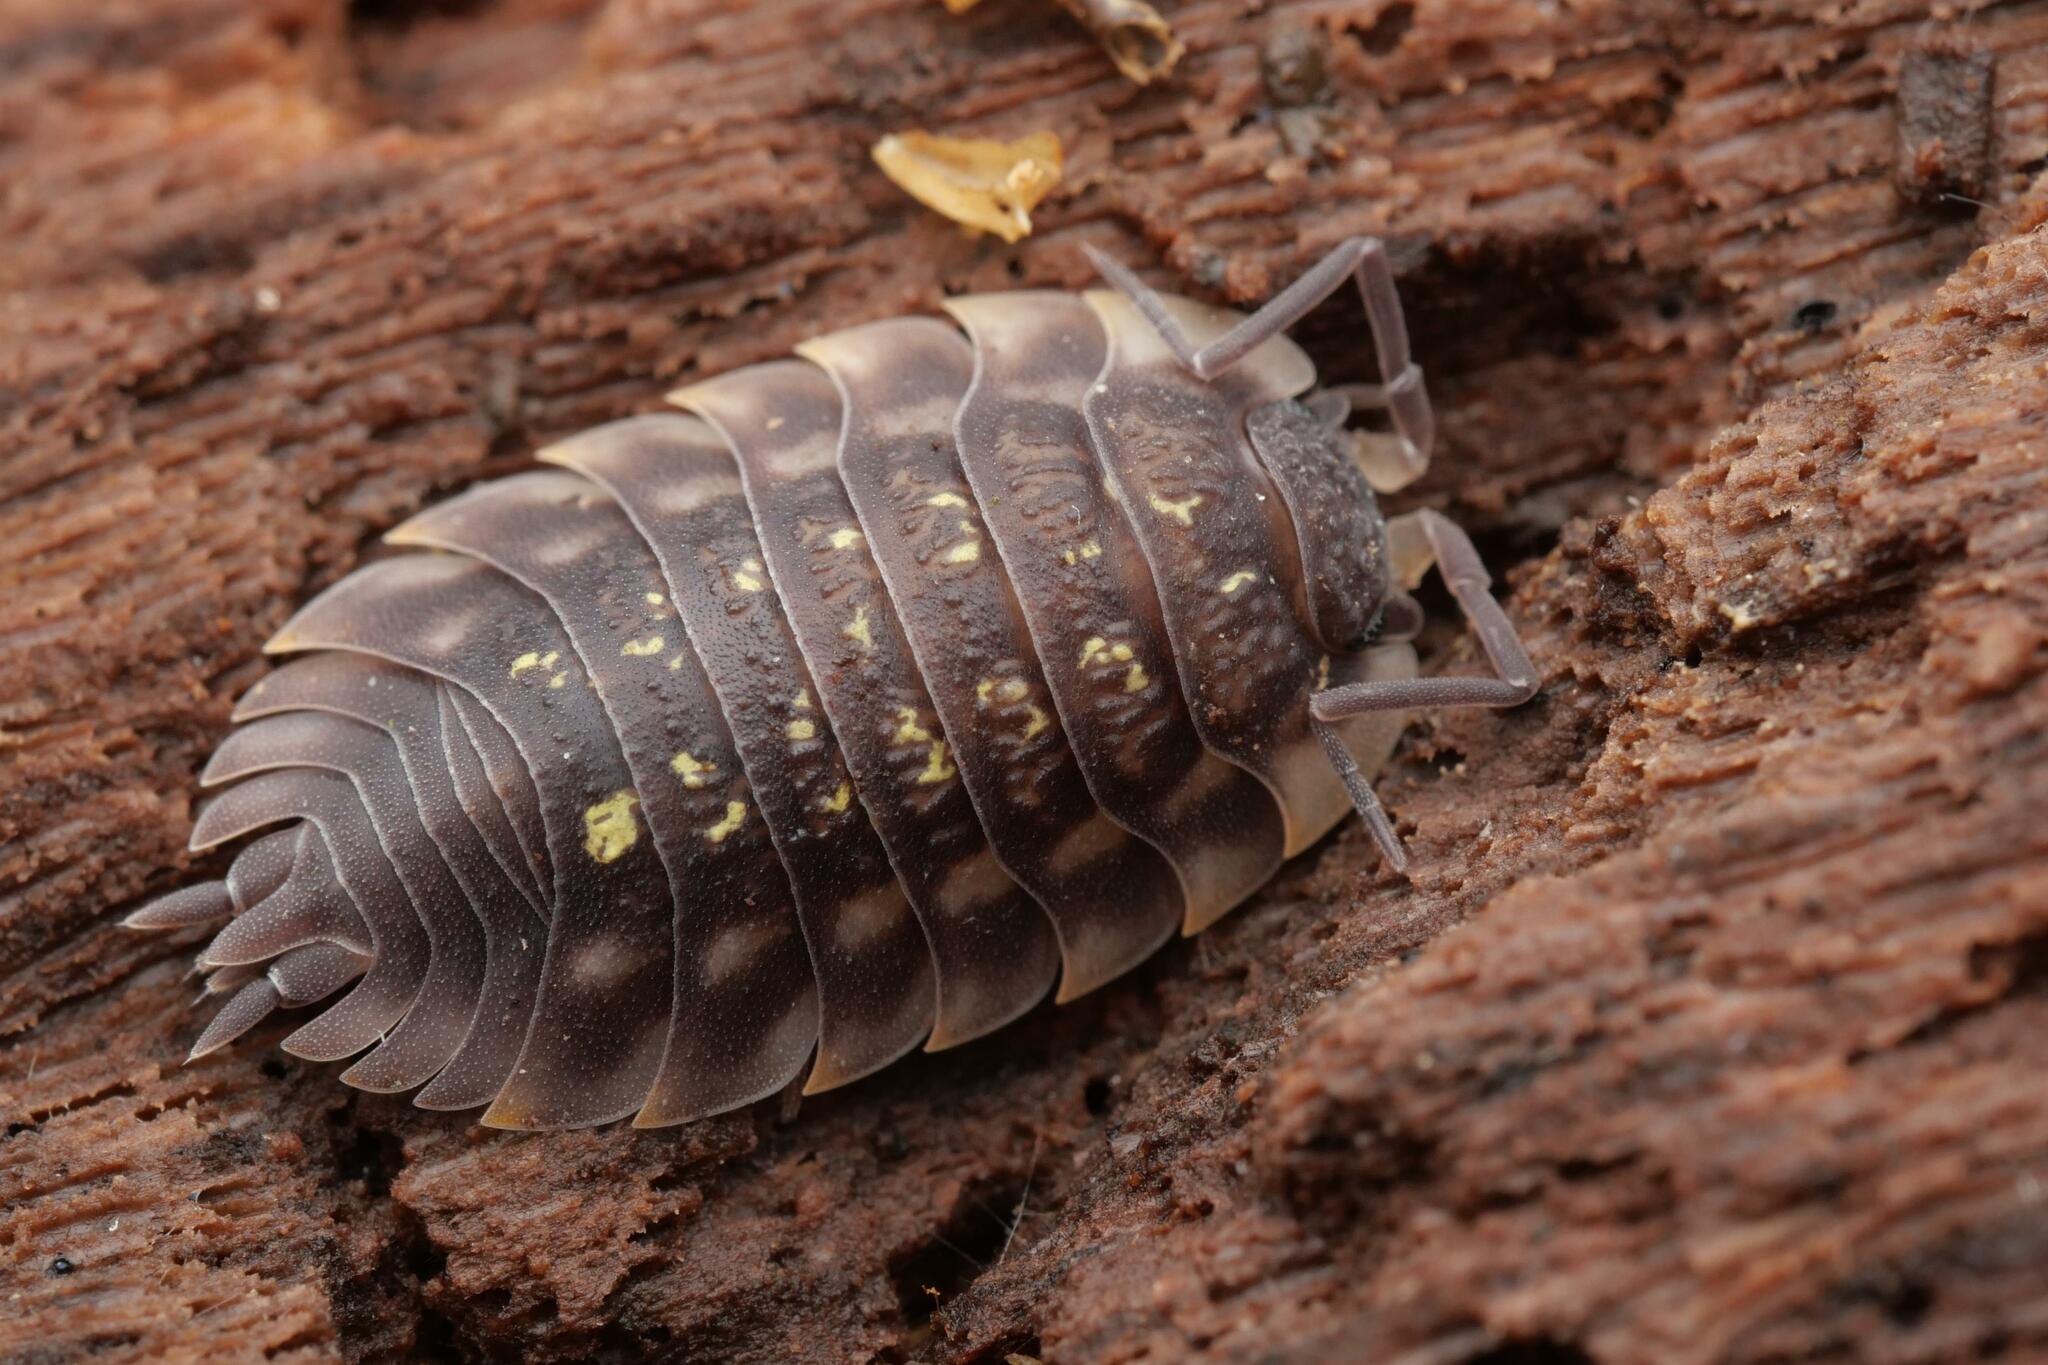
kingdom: Animalia
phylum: Arthropoda
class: Malacostraca
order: Isopoda
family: Oniscidae
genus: Oniscus
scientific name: Oniscus asellus
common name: Common shiny woodlouse
